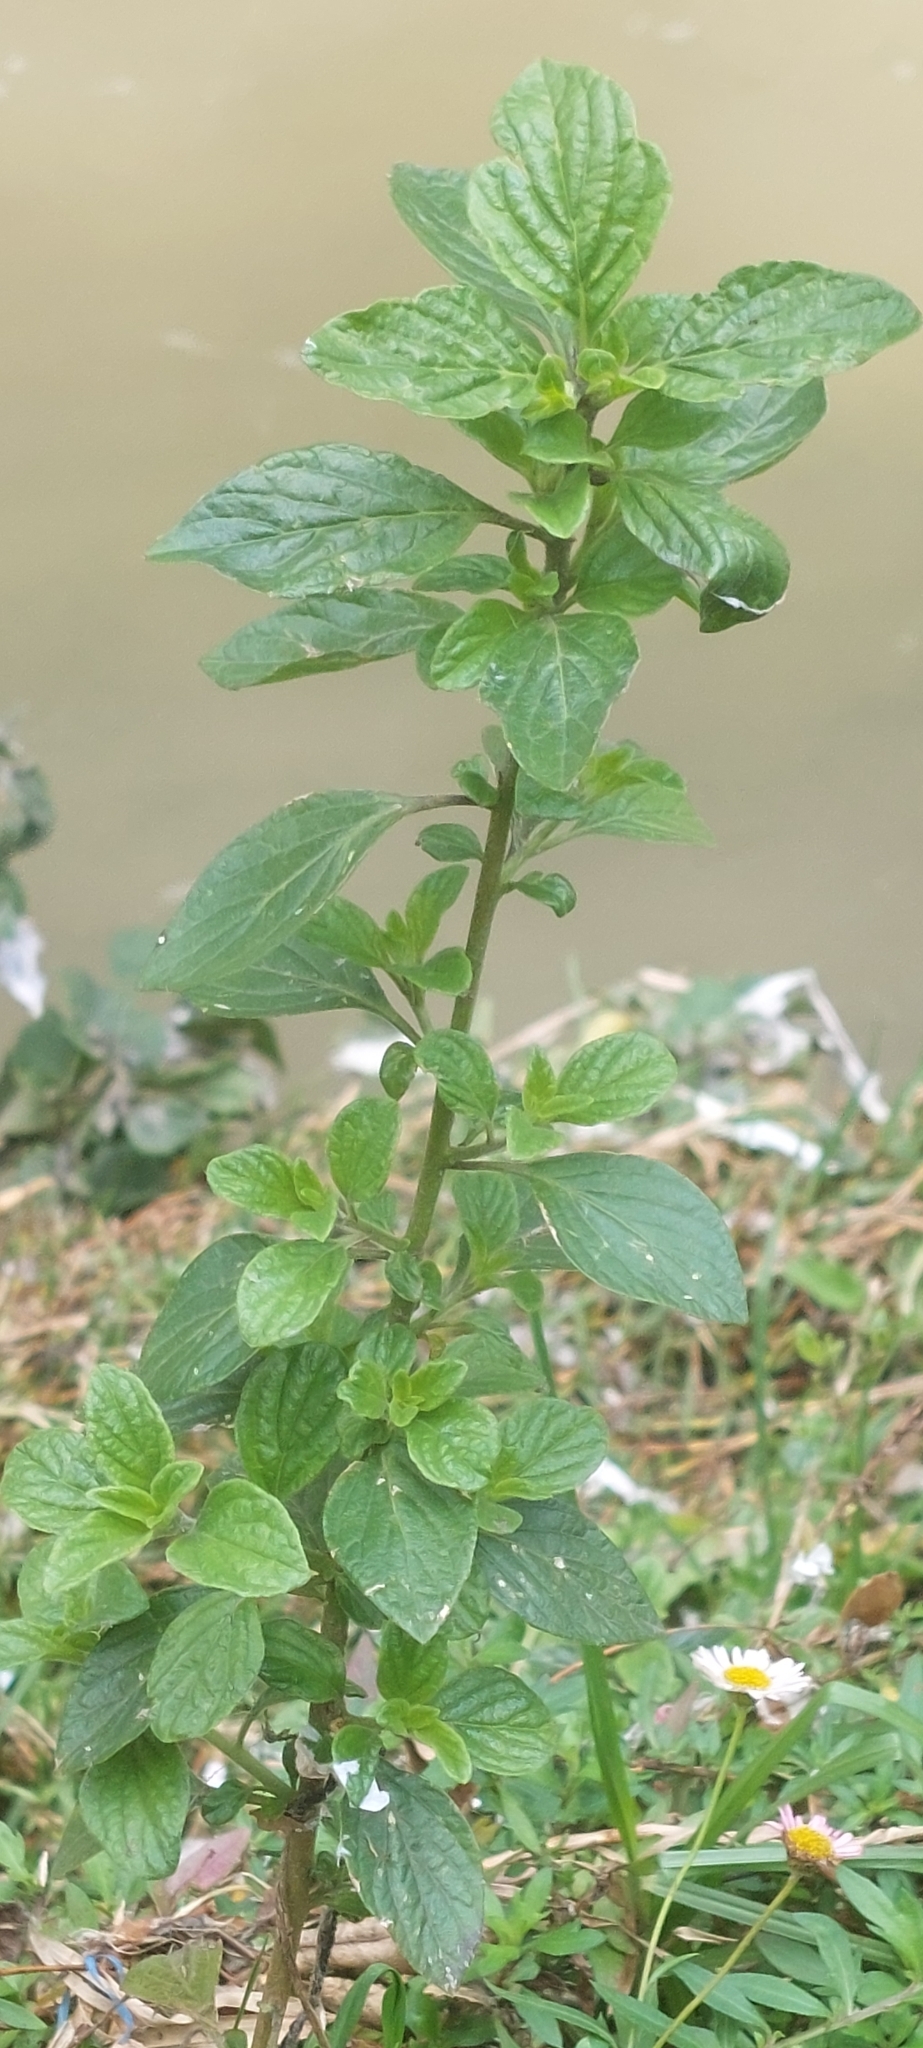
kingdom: Plantae
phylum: Tracheophyta
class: Magnoliopsida
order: Solanales
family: Solanaceae
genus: Streptosolen
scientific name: Streptosolen jamesonii
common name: Marmalade bush
